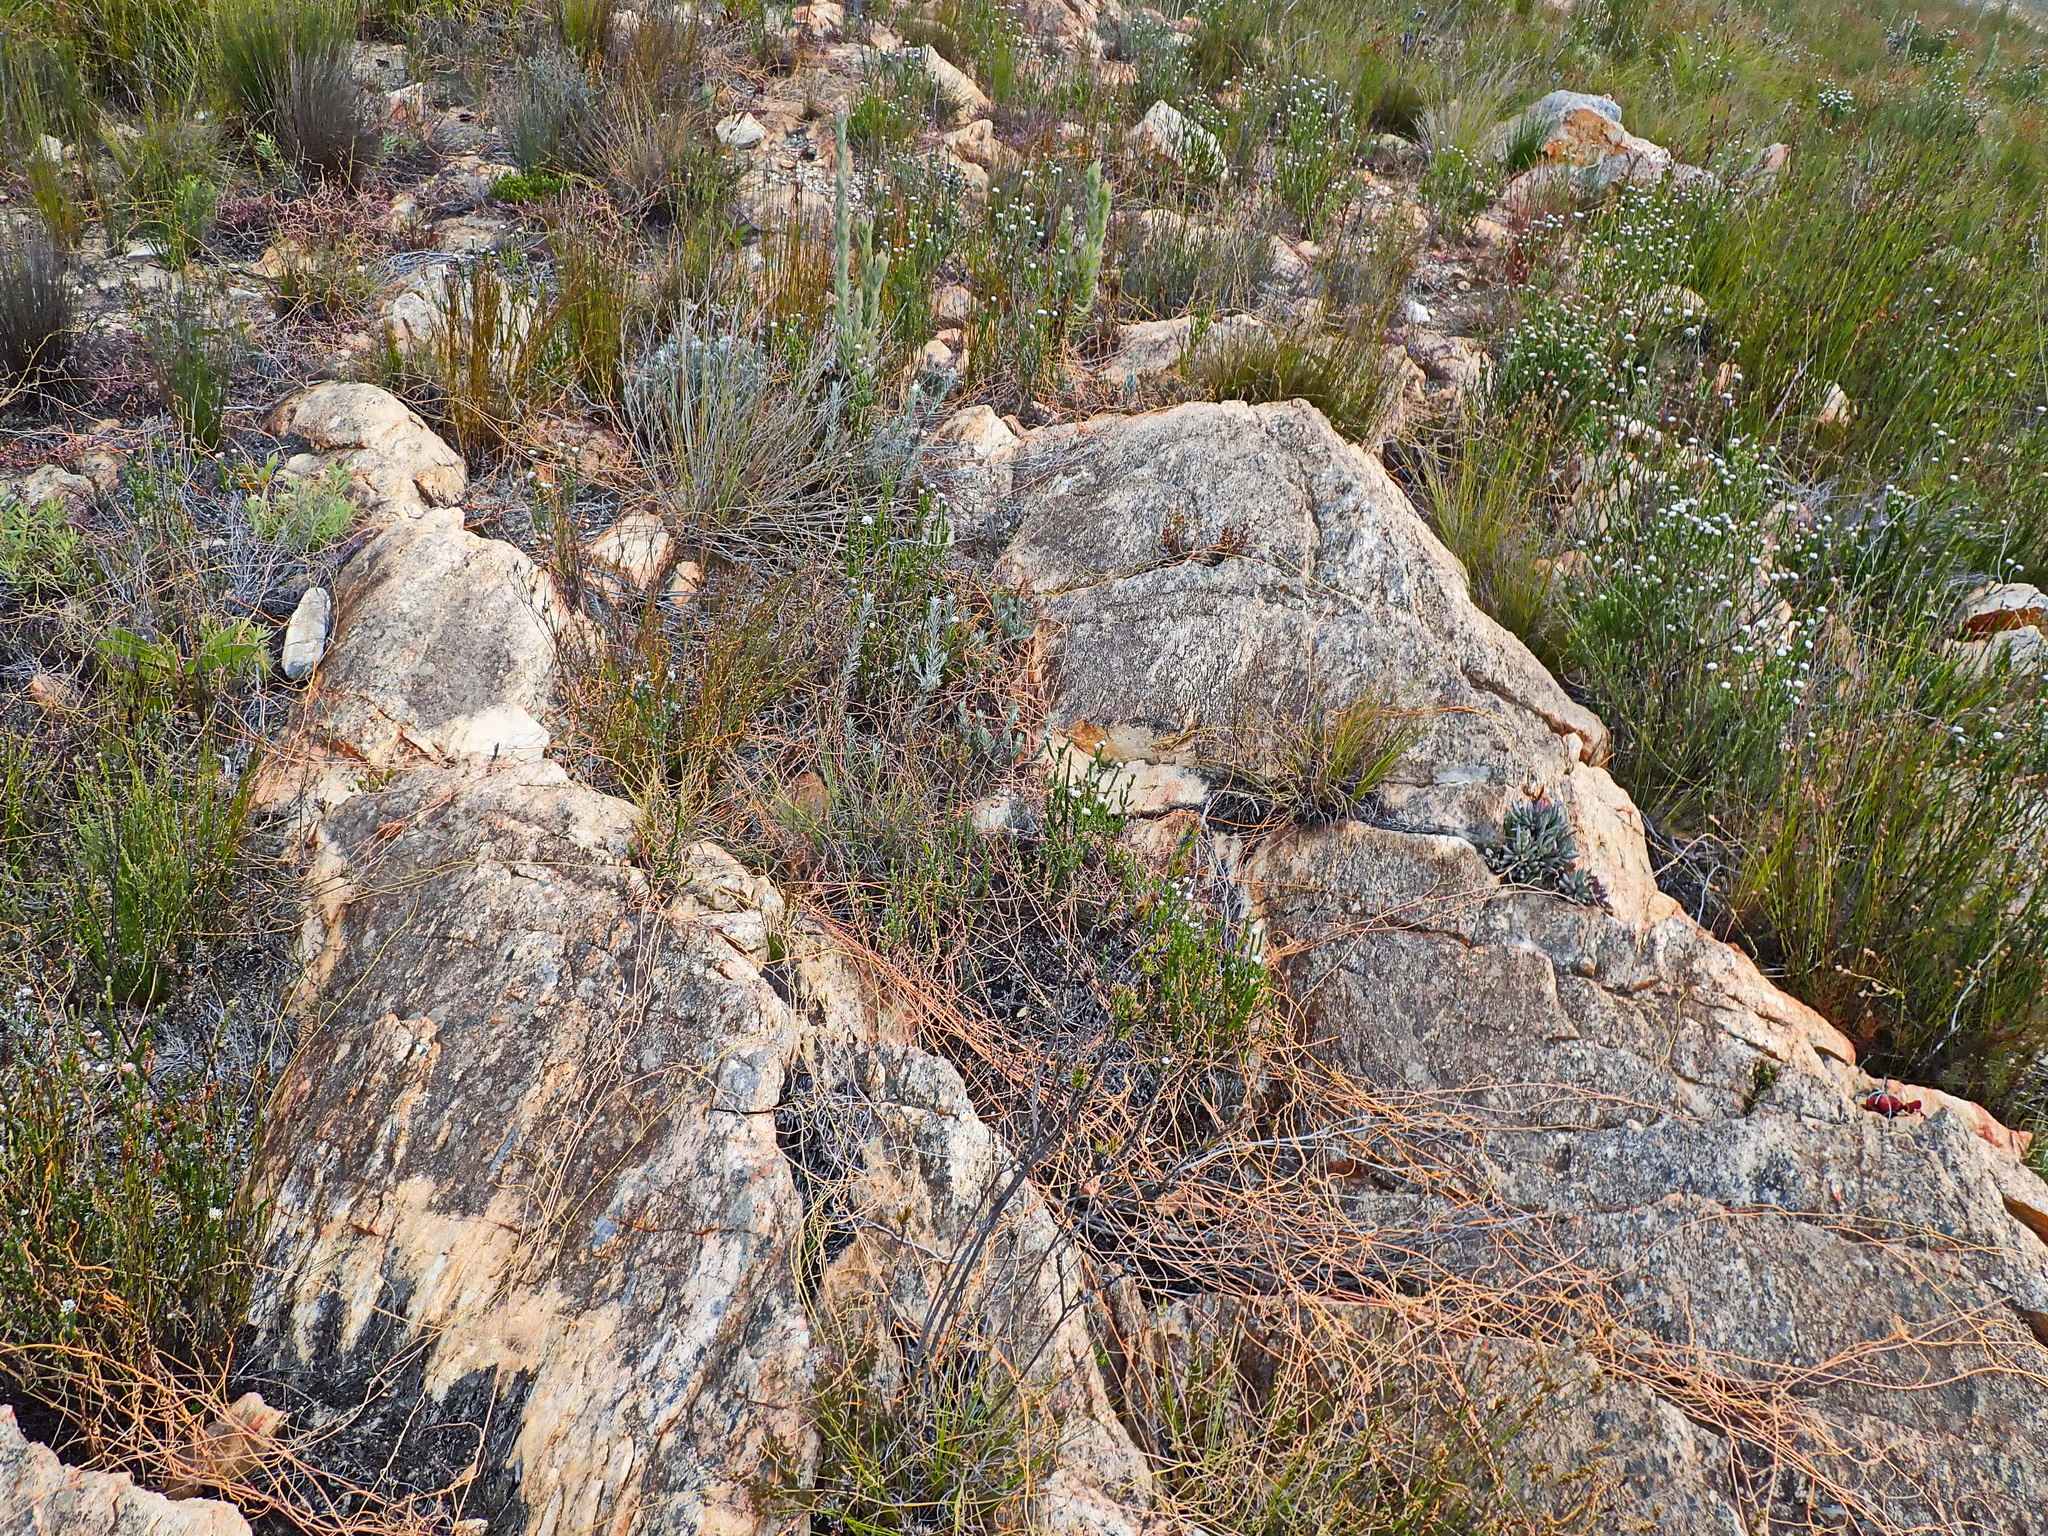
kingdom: Plantae
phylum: Tracheophyta
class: Magnoliopsida
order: Laurales
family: Lauraceae
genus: Cassytha
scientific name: Cassytha ciliolata
